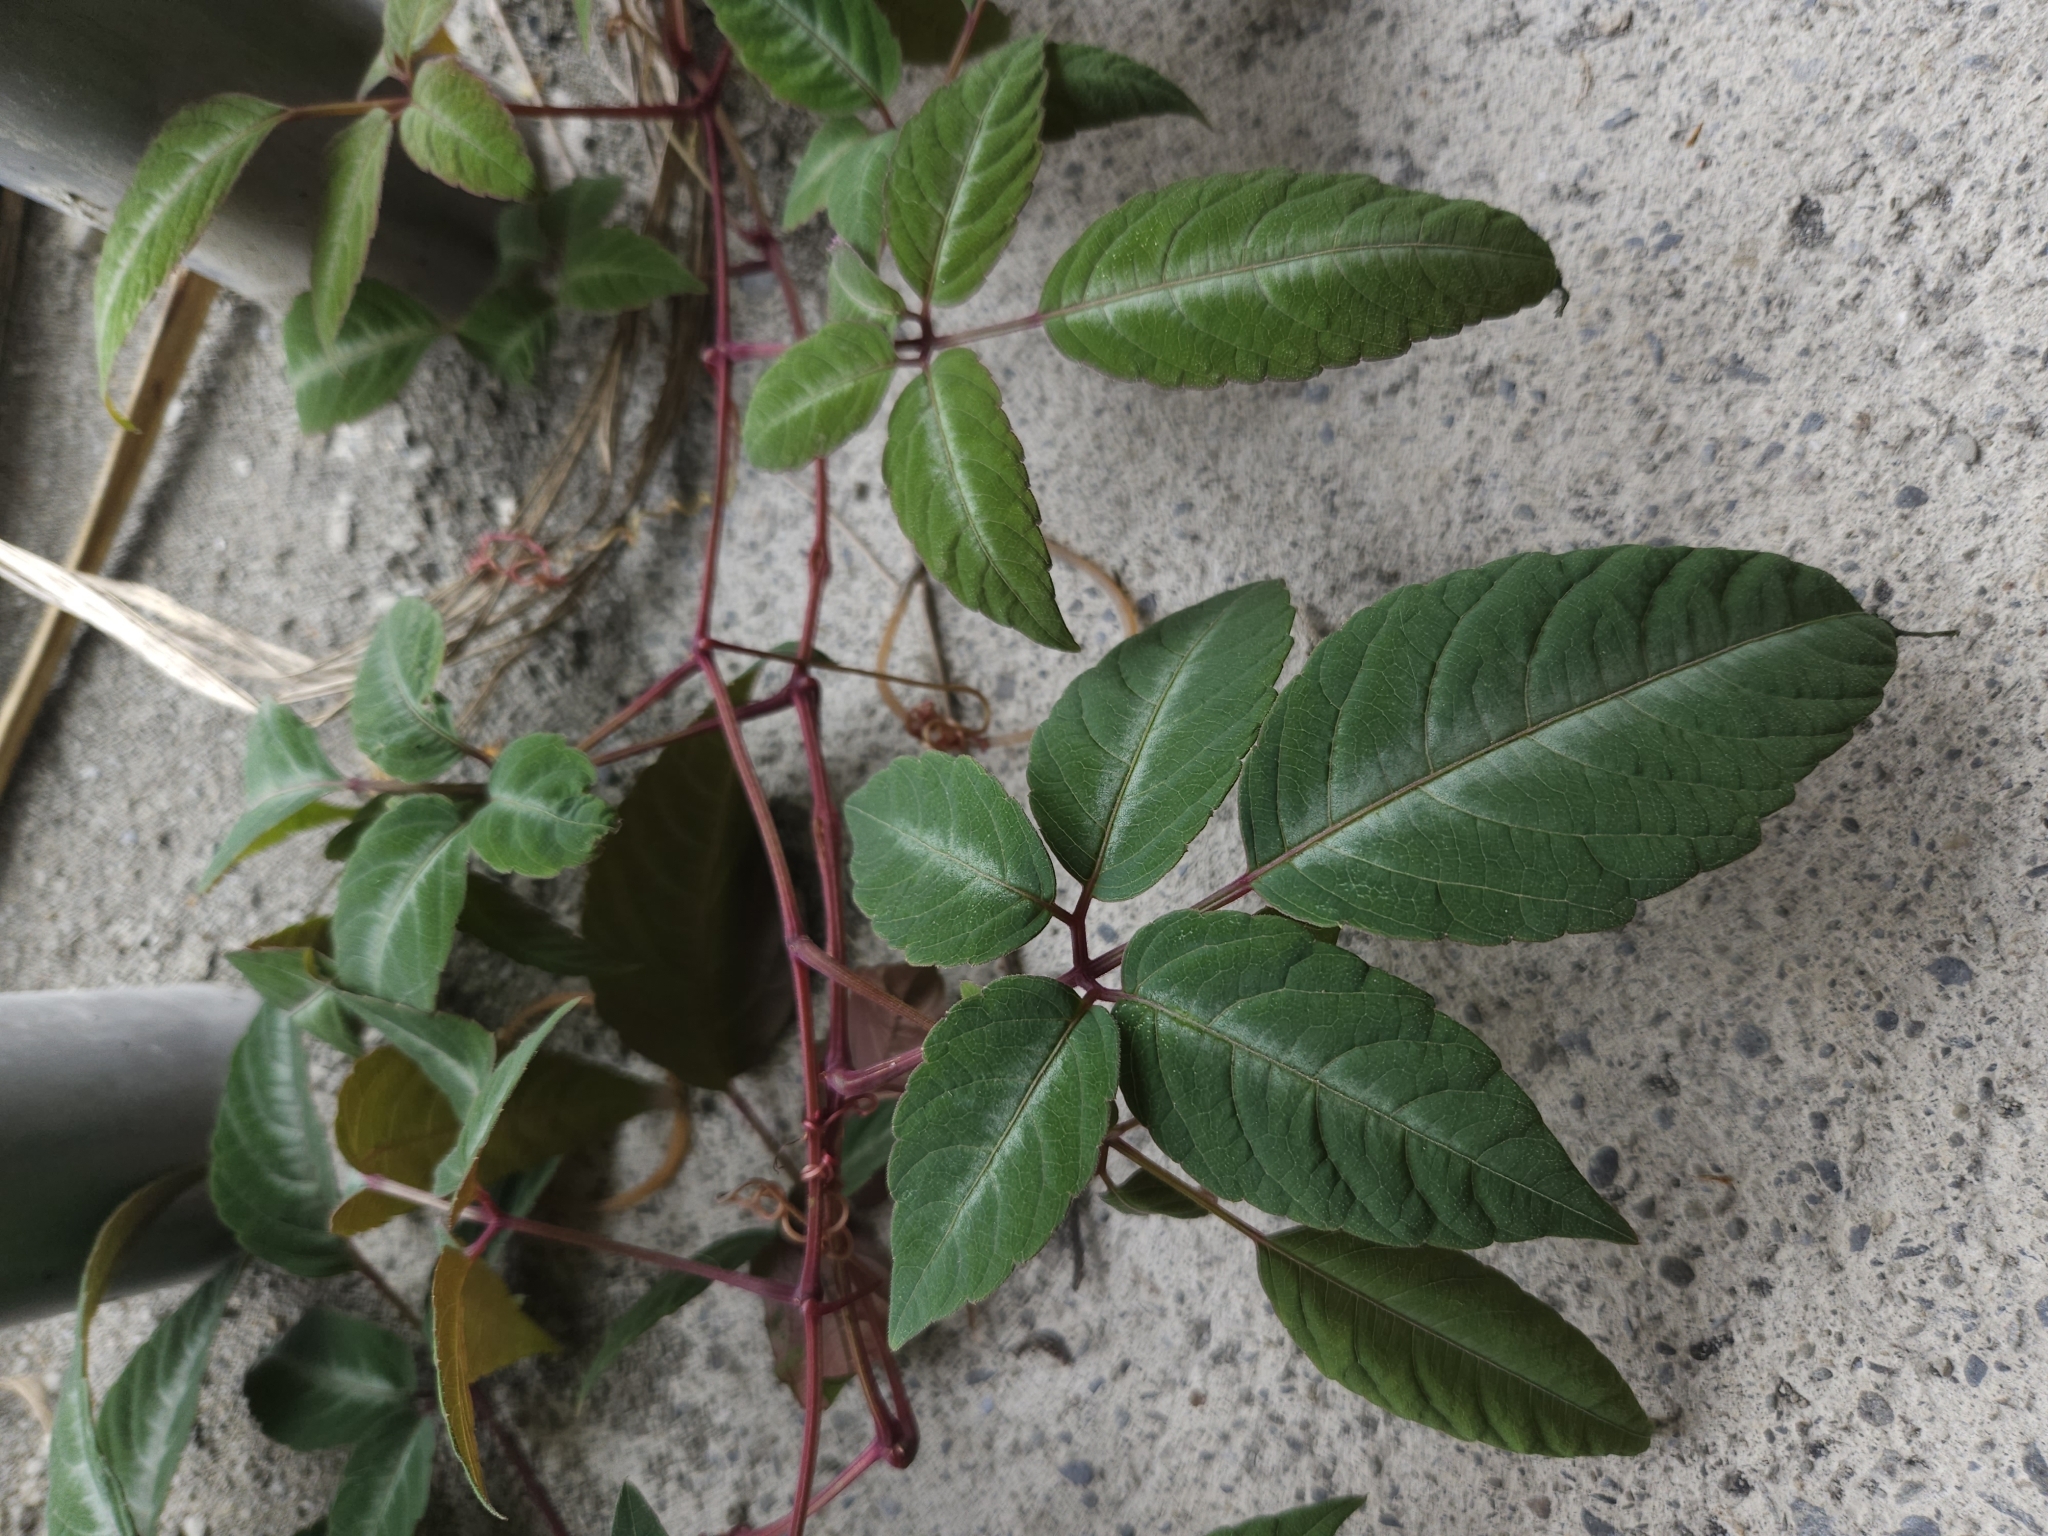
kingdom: Plantae
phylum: Tracheophyta
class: Magnoliopsida
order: Vitales
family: Vitaceae
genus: Pseudocayratia
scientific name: Pseudocayratia pengiana
